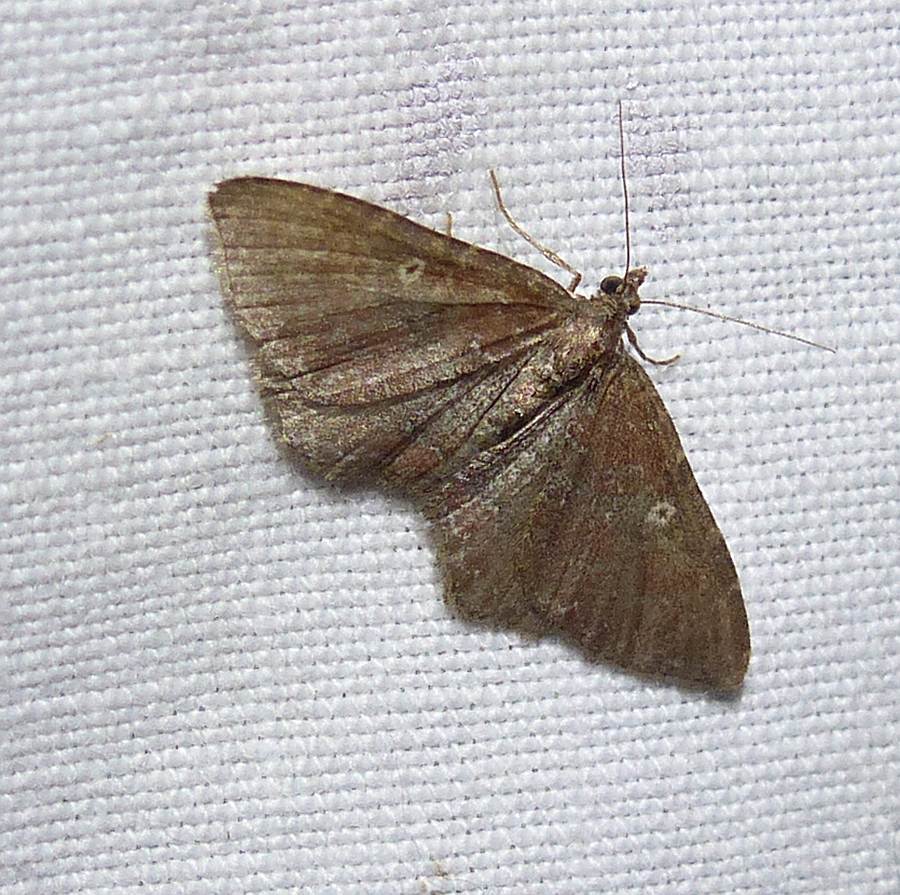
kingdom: Animalia
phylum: Arthropoda
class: Insecta
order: Lepidoptera
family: Geometridae
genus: Orthonama
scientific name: Orthonama obstipata
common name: The gem
